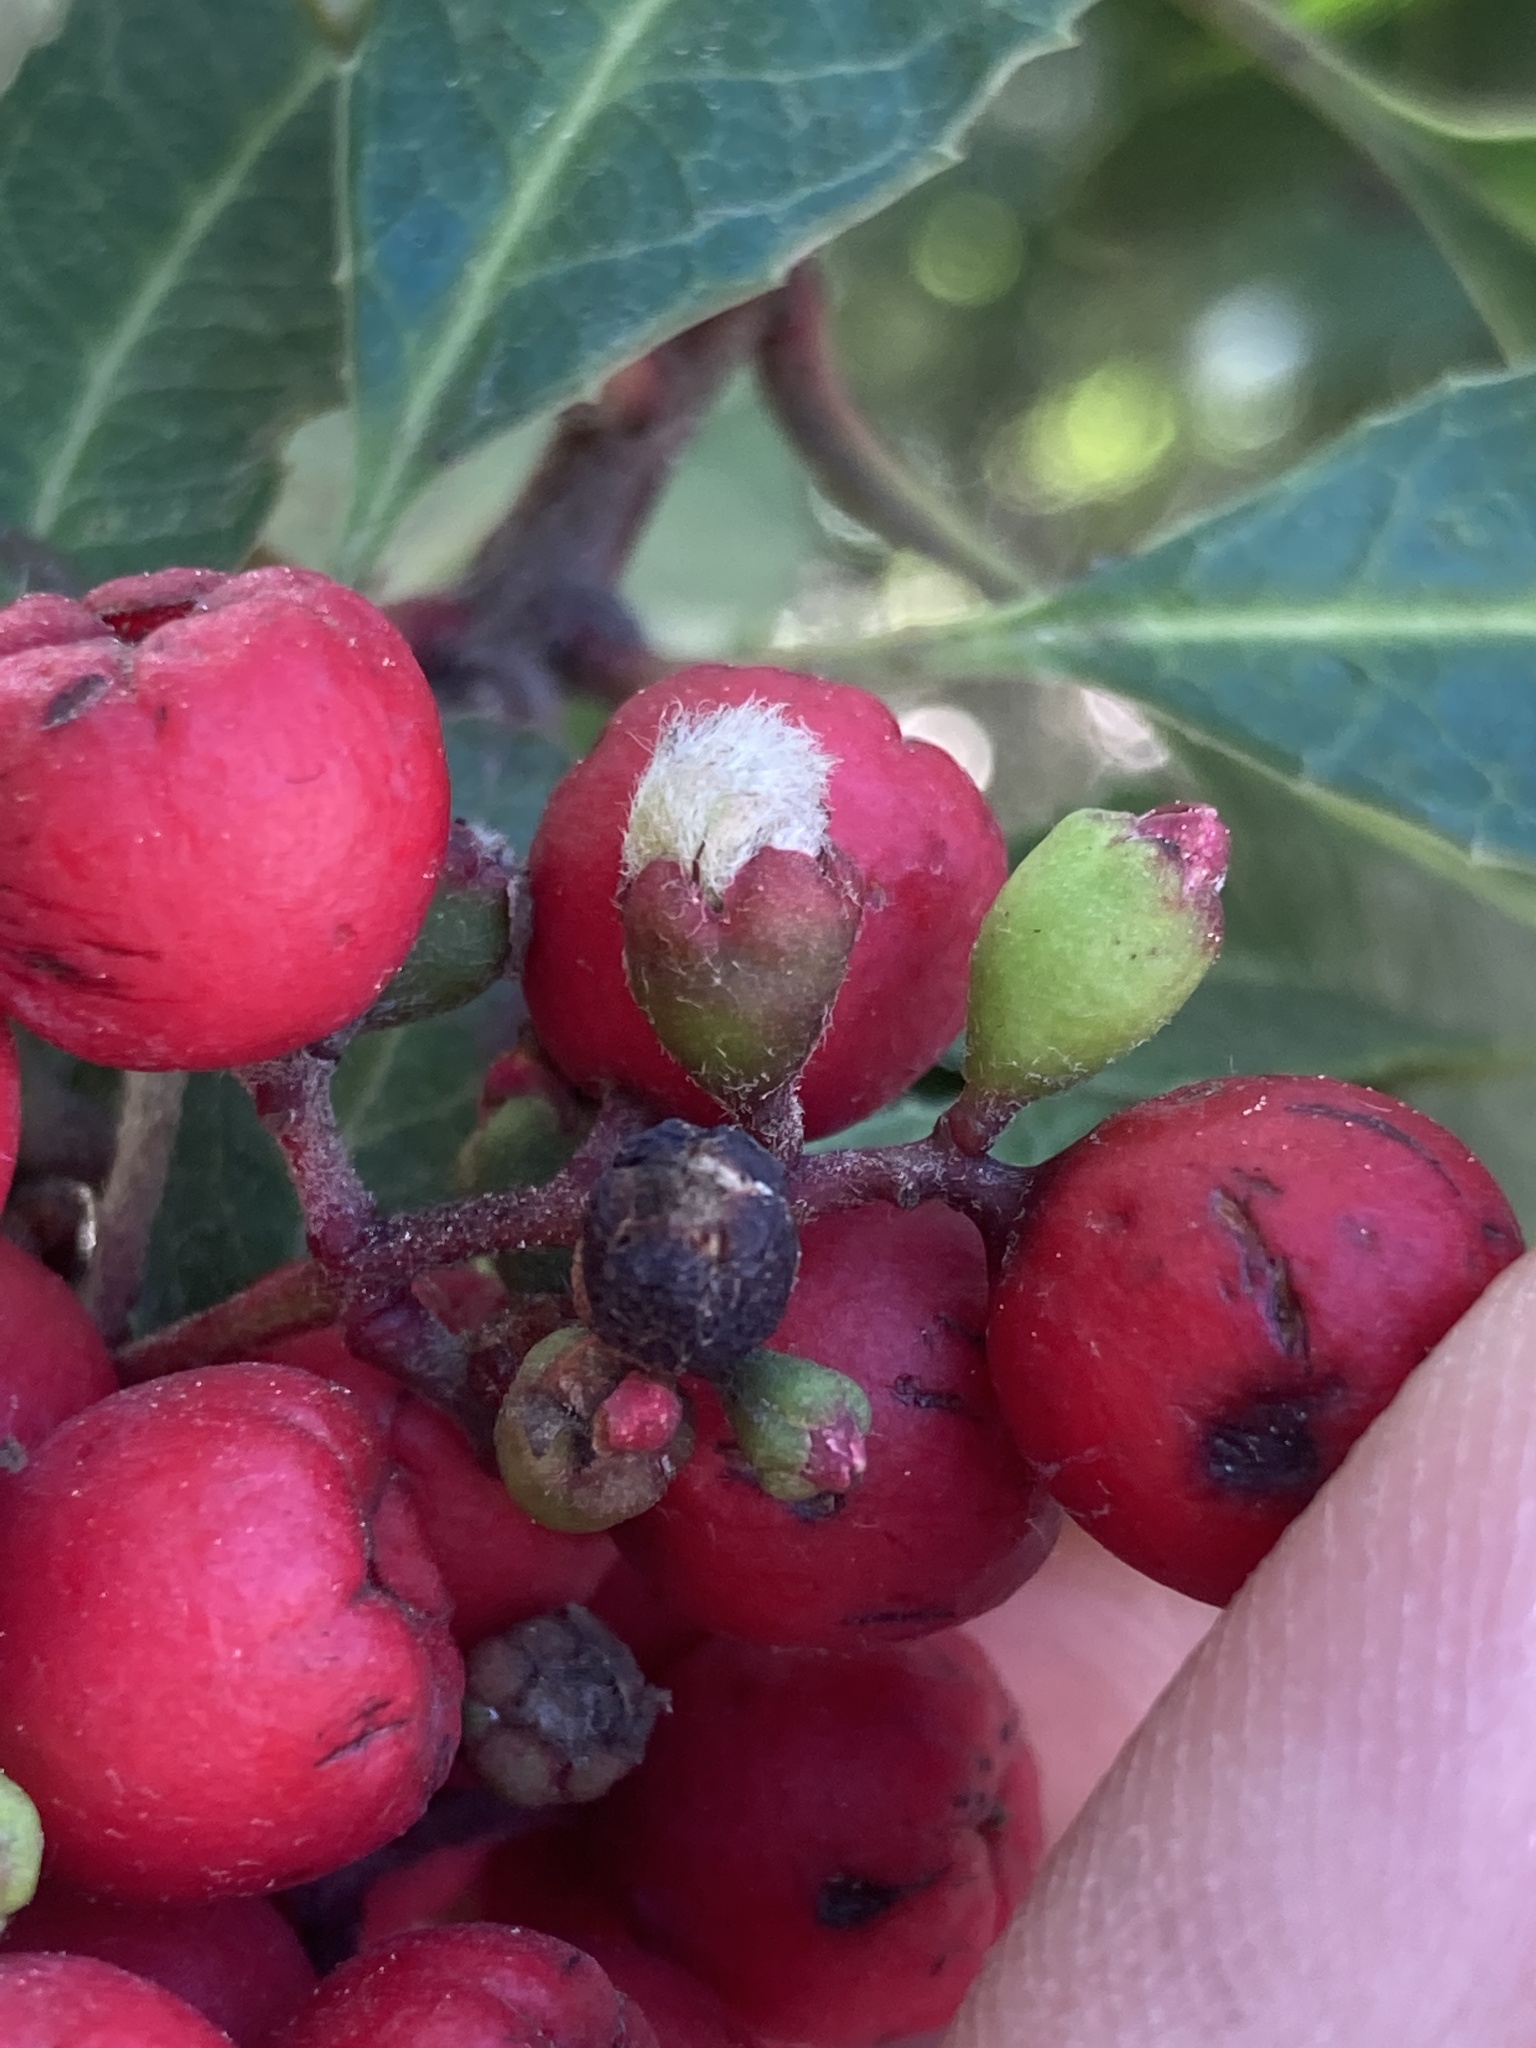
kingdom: Animalia
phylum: Arthropoda
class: Insecta
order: Diptera
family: Cecidomyiidae
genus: Asphondylia
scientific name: Asphondylia photiniae
